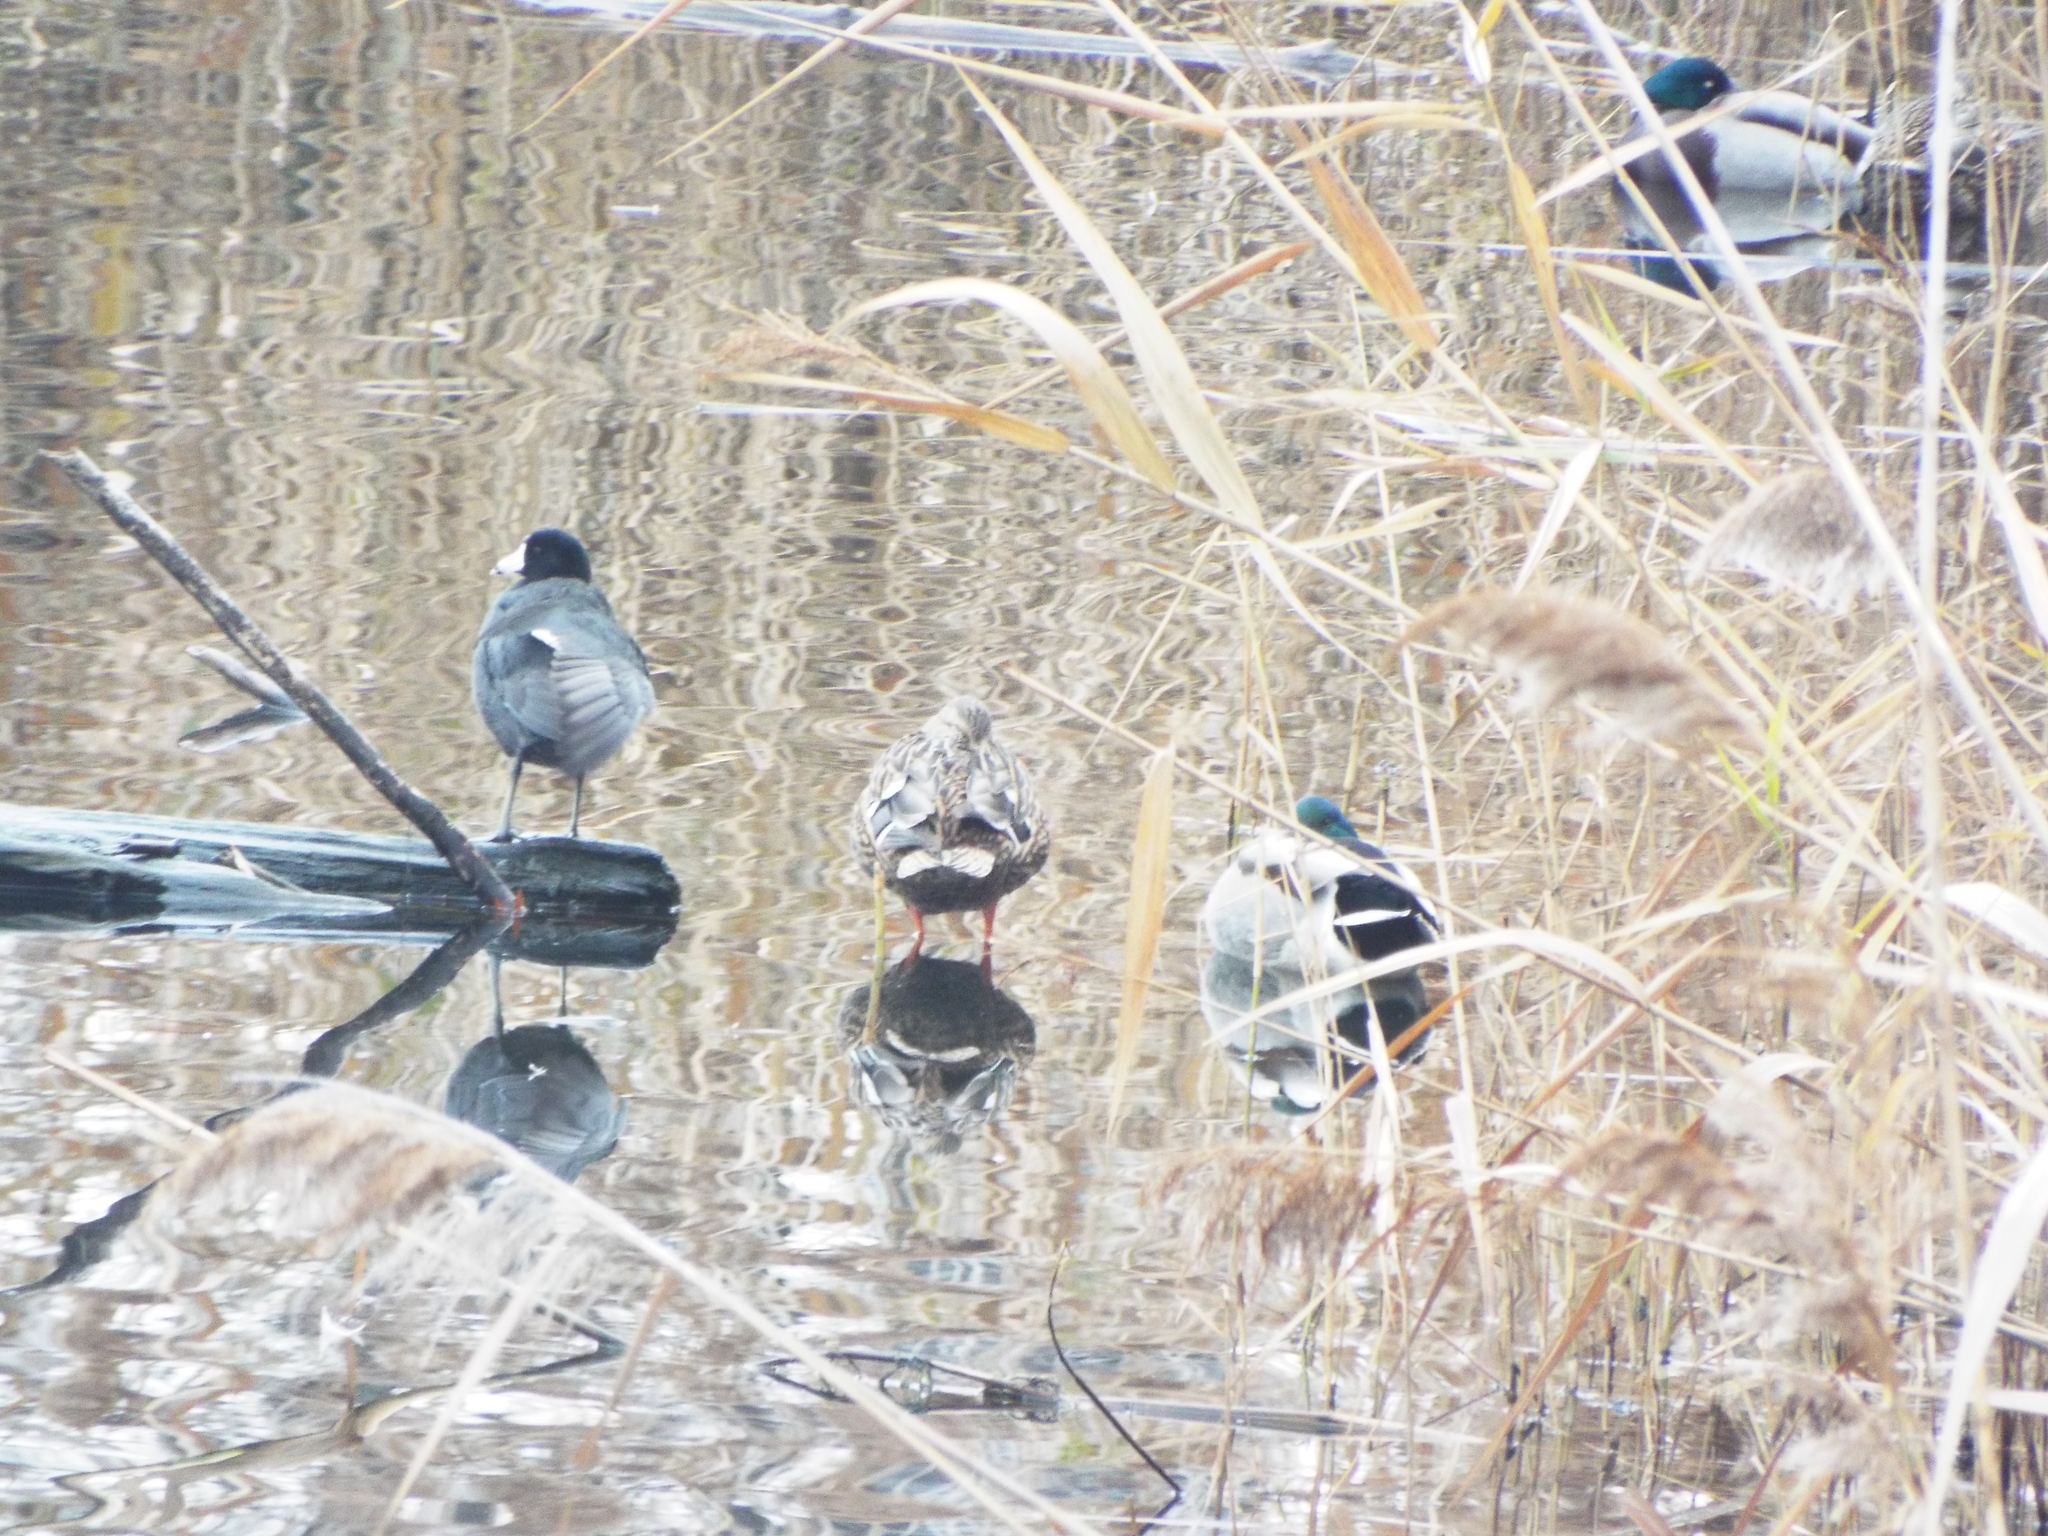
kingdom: Animalia
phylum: Chordata
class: Aves
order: Gruiformes
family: Rallidae
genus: Fulica
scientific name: Fulica americana
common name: American coot
